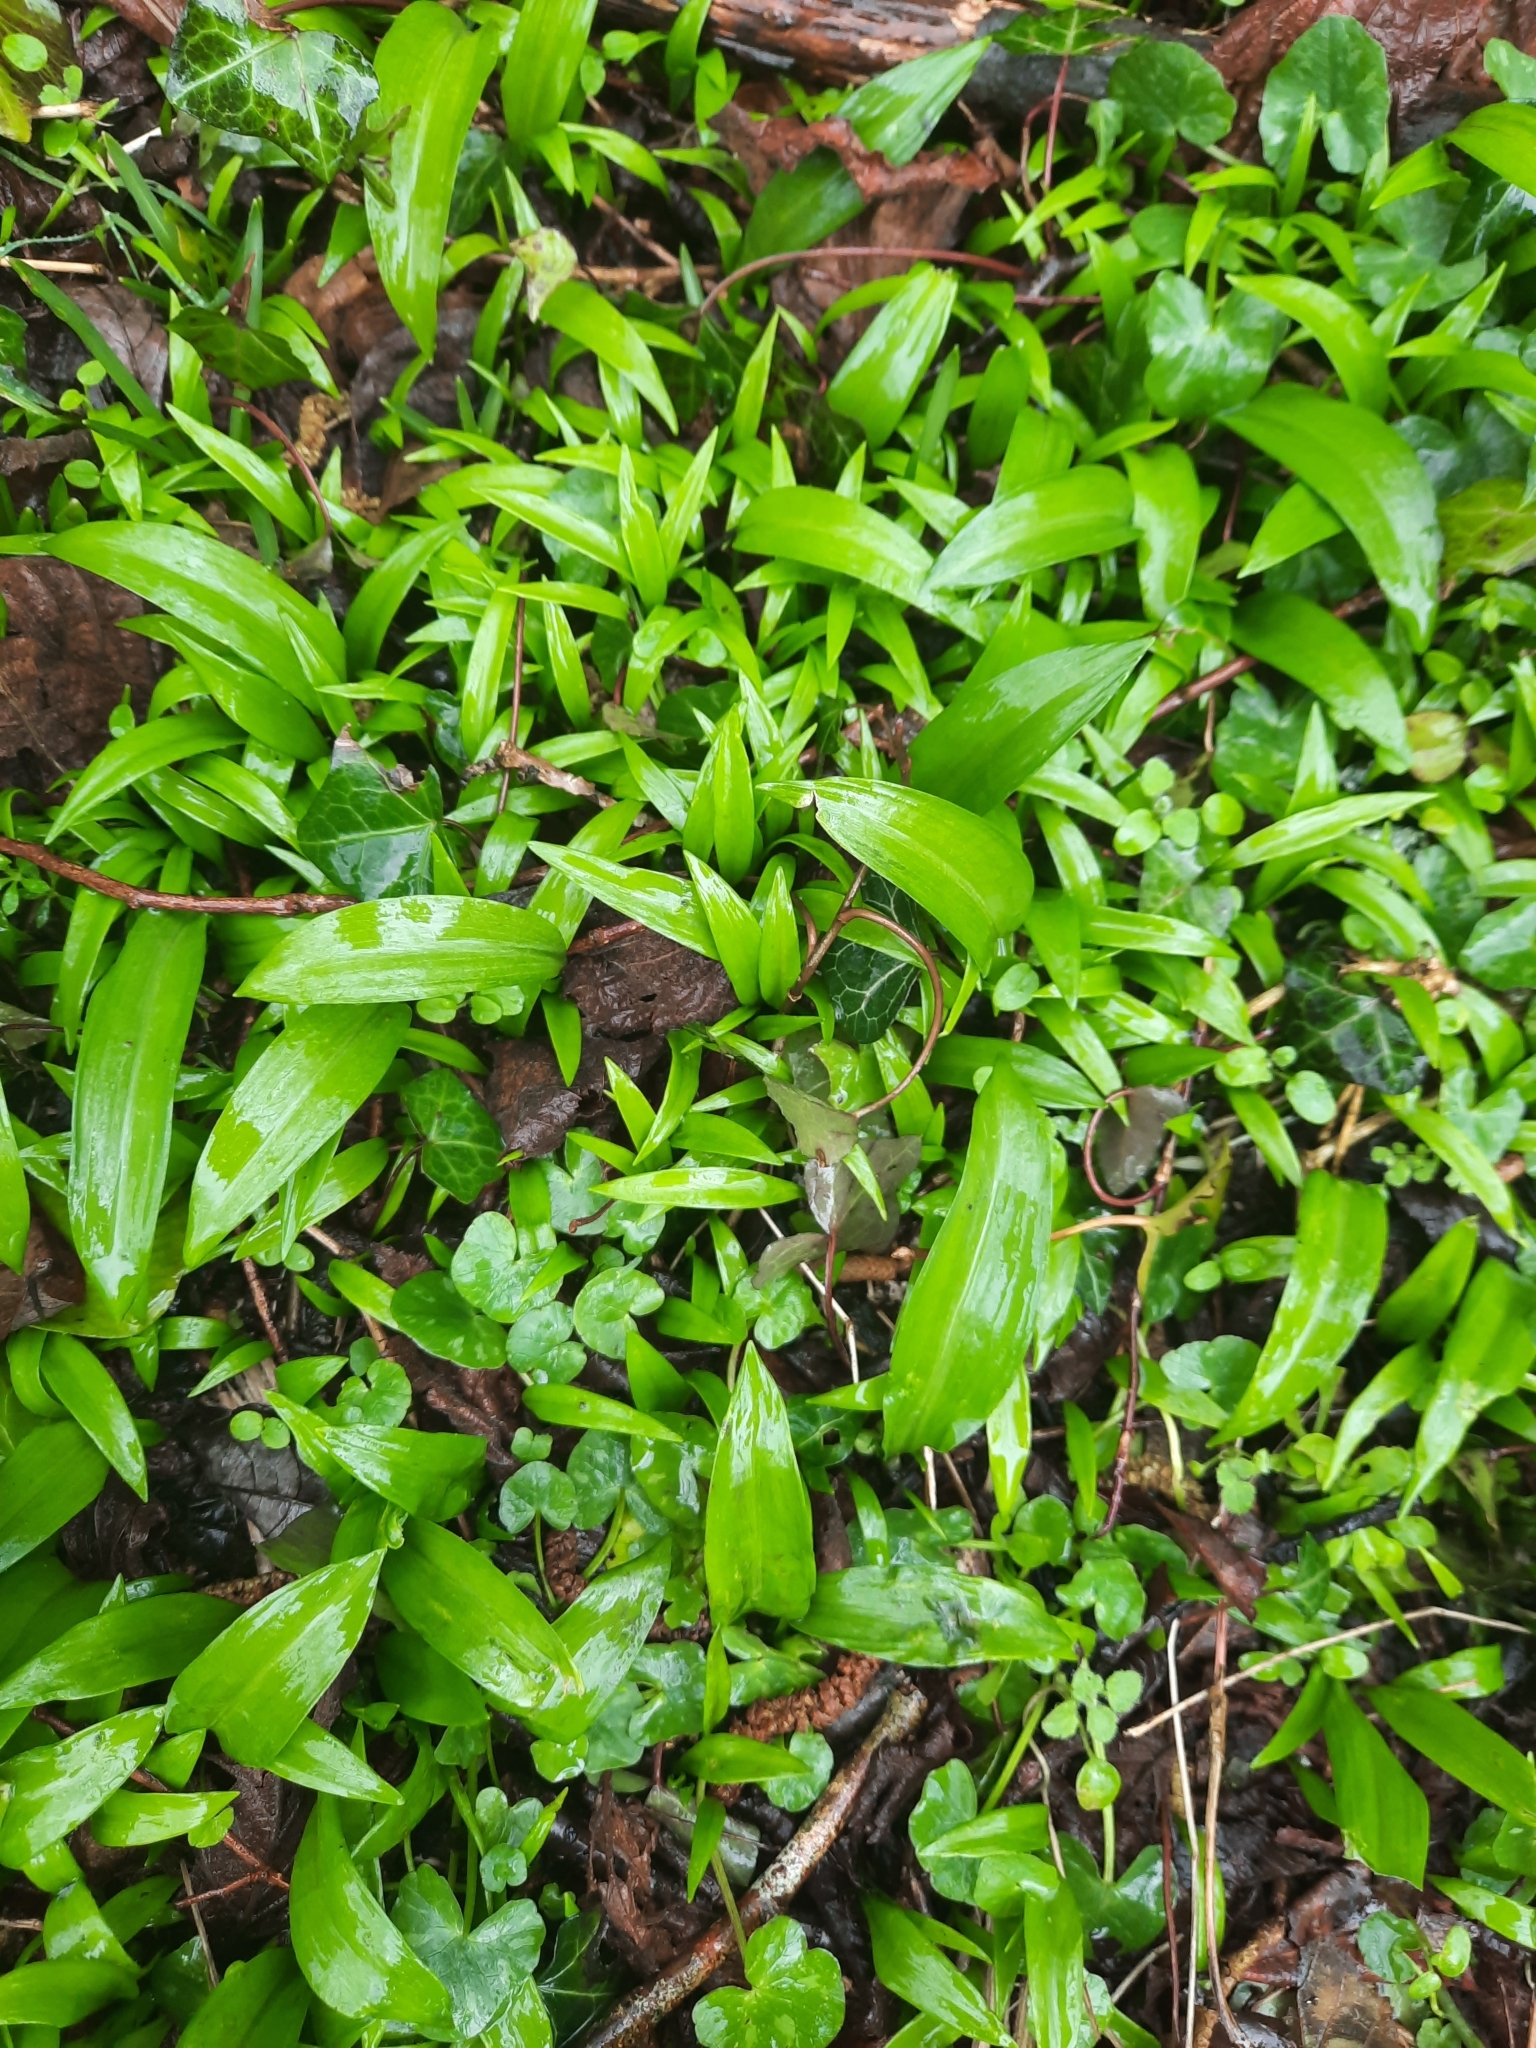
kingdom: Plantae
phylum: Tracheophyta
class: Liliopsida
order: Asparagales
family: Amaryllidaceae
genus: Allium
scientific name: Allium ursinum
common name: Ramsons
